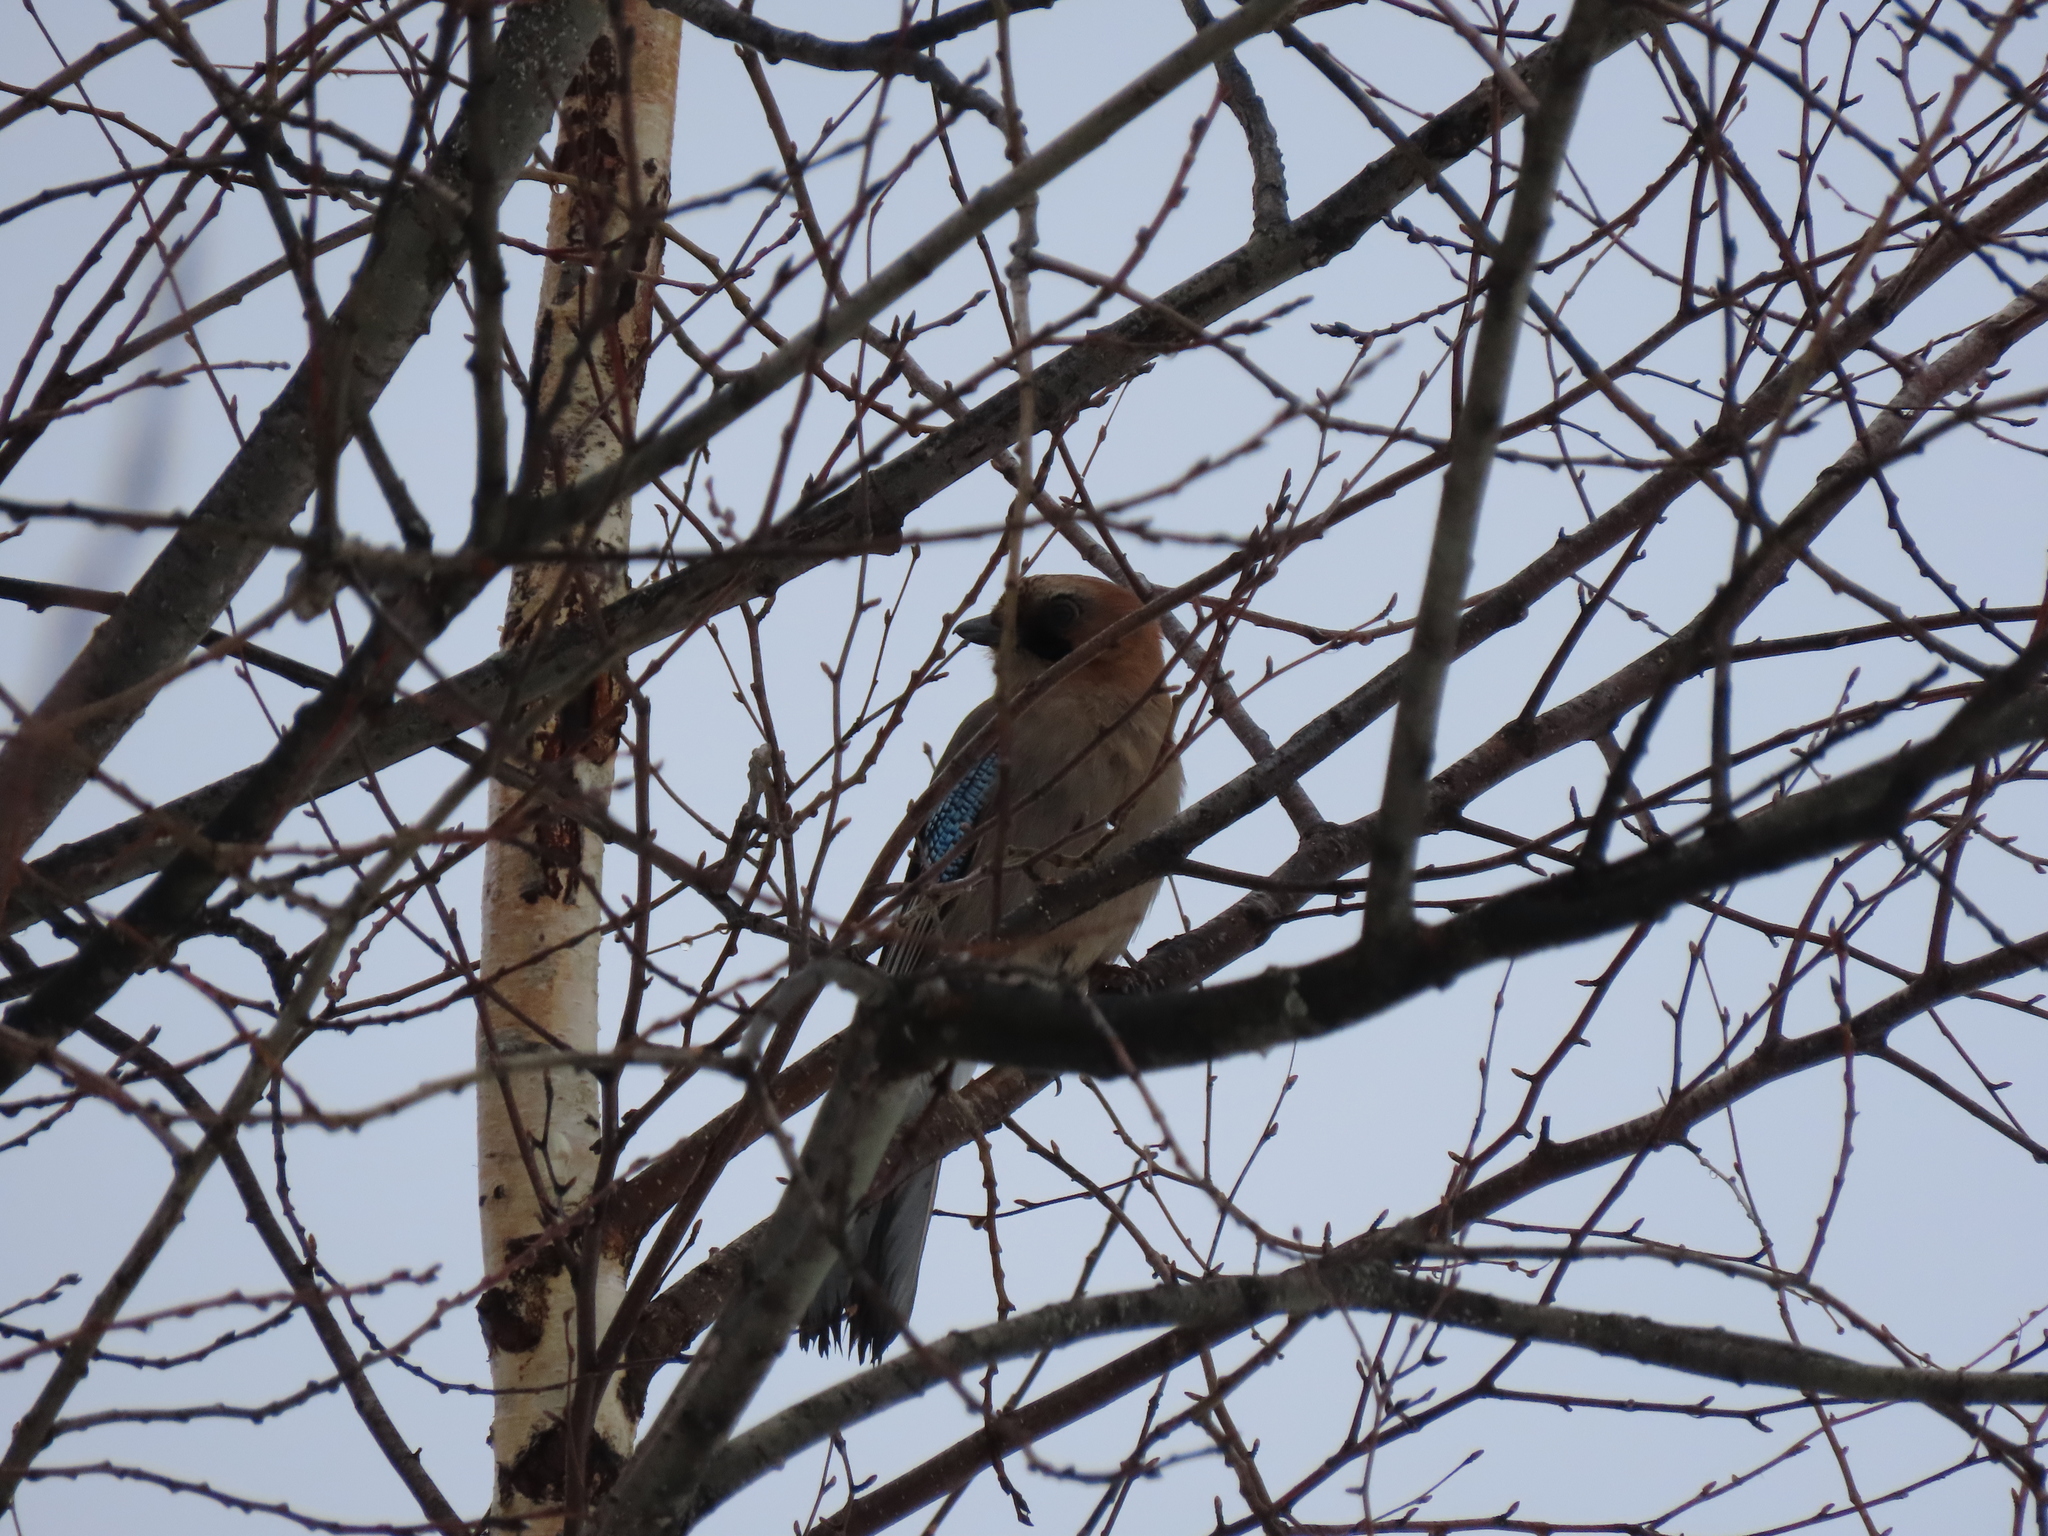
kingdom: Animalia
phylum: Chordata
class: Aves
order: Passeriformes
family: Corvidae
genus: Garrulus
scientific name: Garrulus glandarius
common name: Eurasian jay
